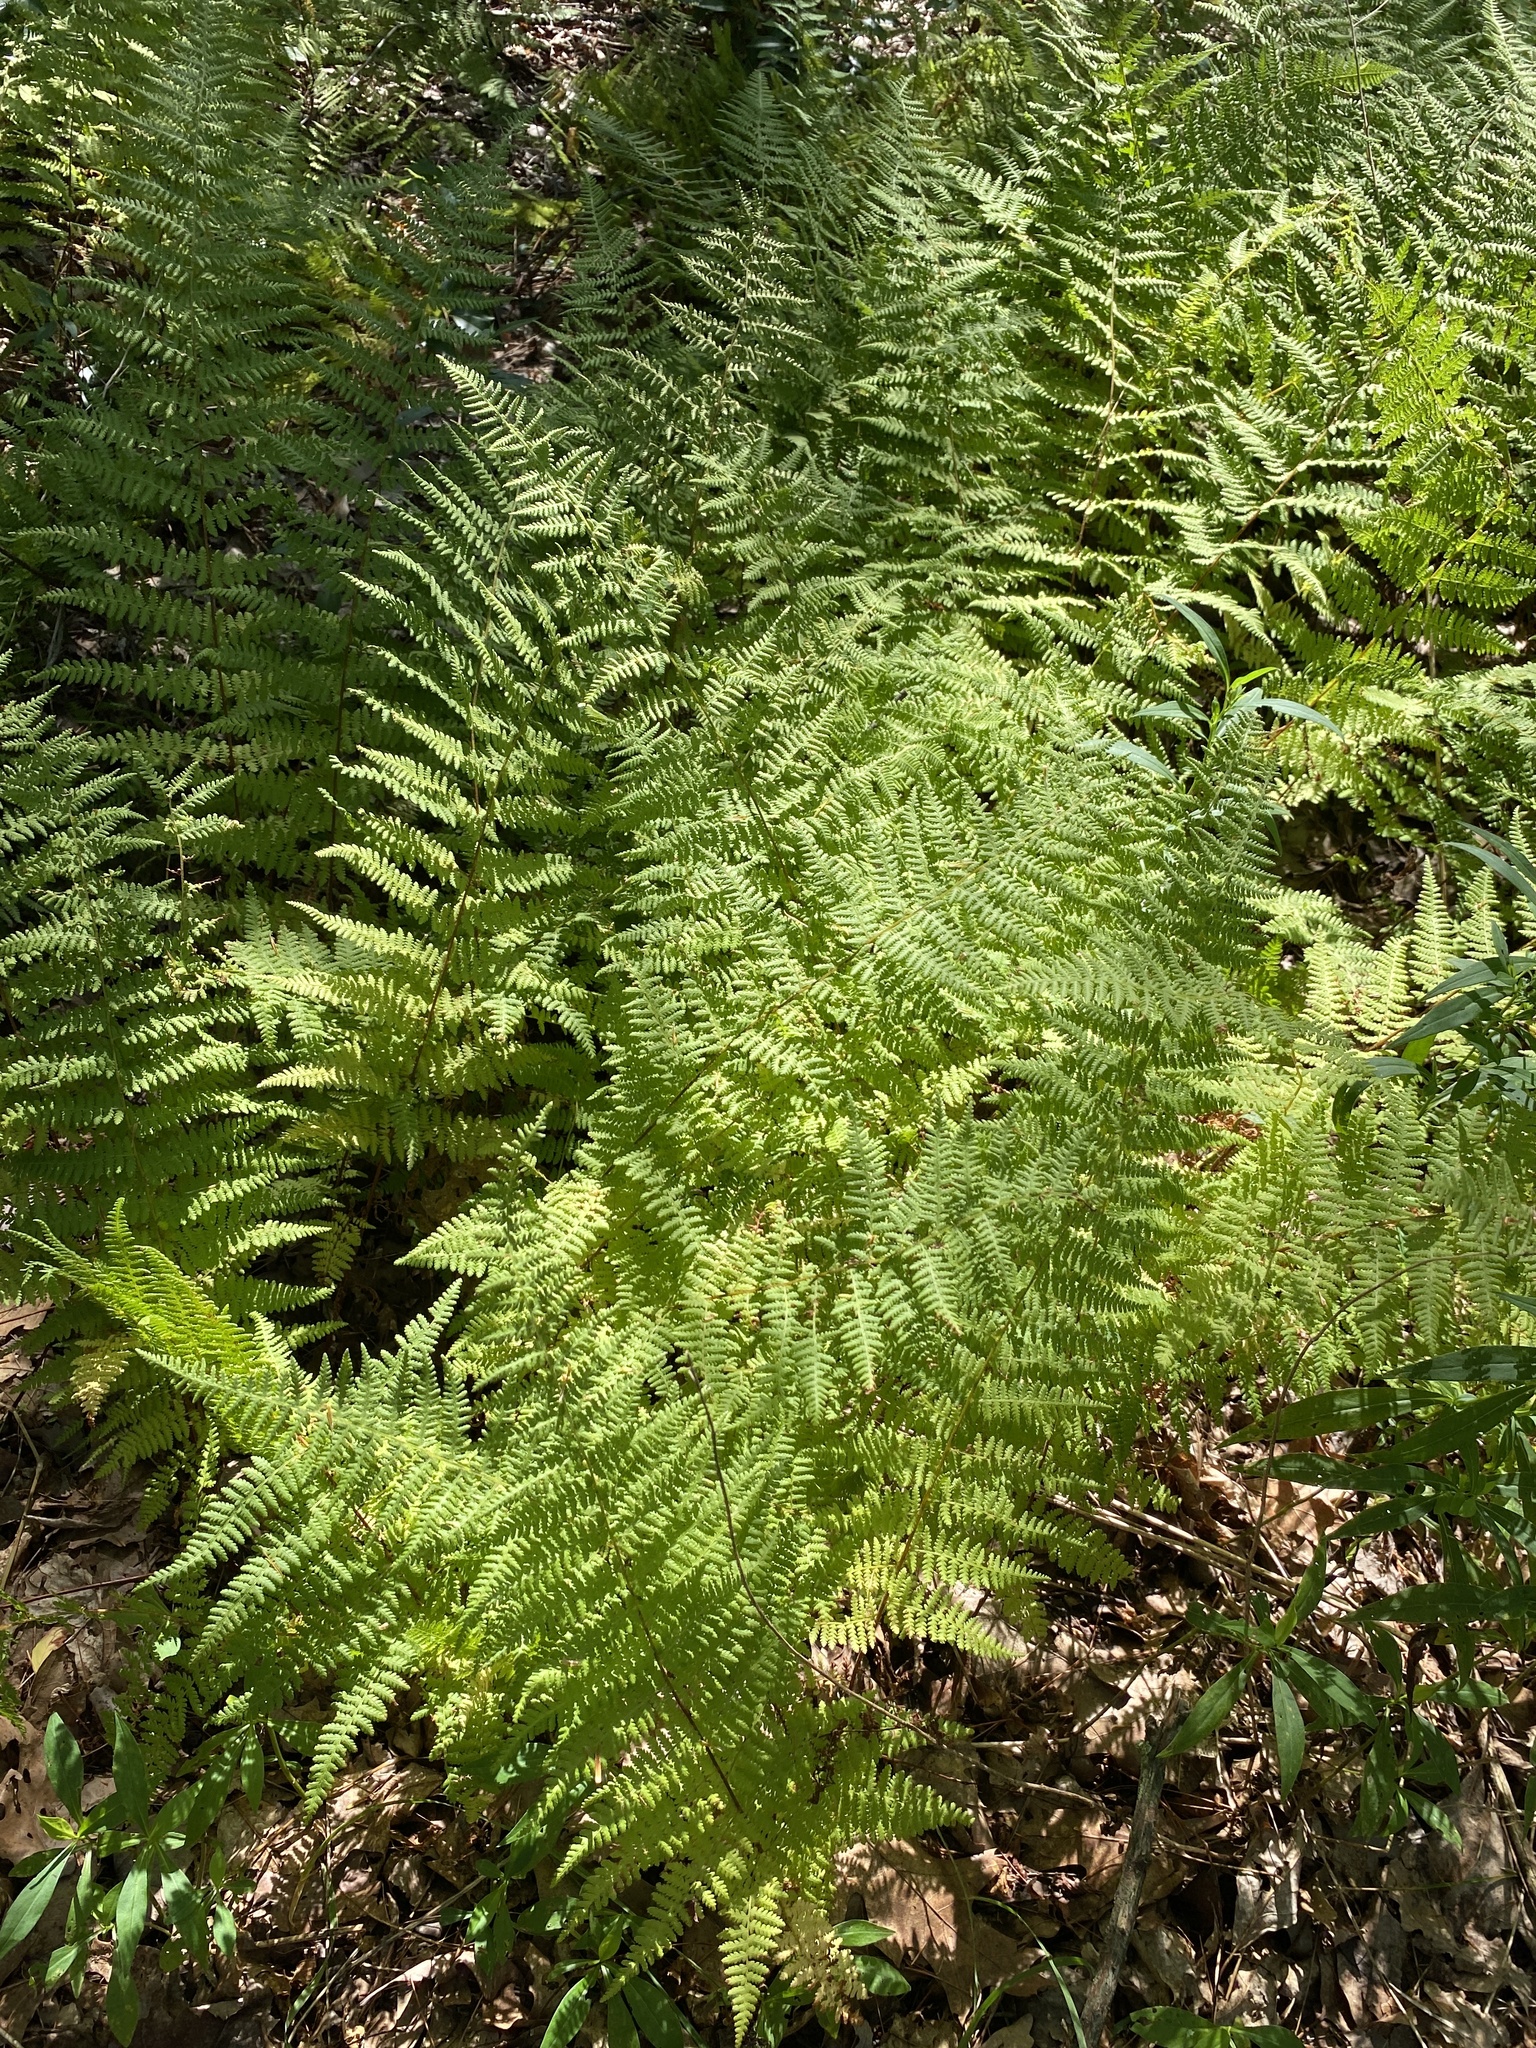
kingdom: Plantae
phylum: Tracheophyta
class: Polypodiopsida
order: Polypodiales
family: Dennstaedtiaceae
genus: Sitobolium
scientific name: Sitobolium punctilobum
